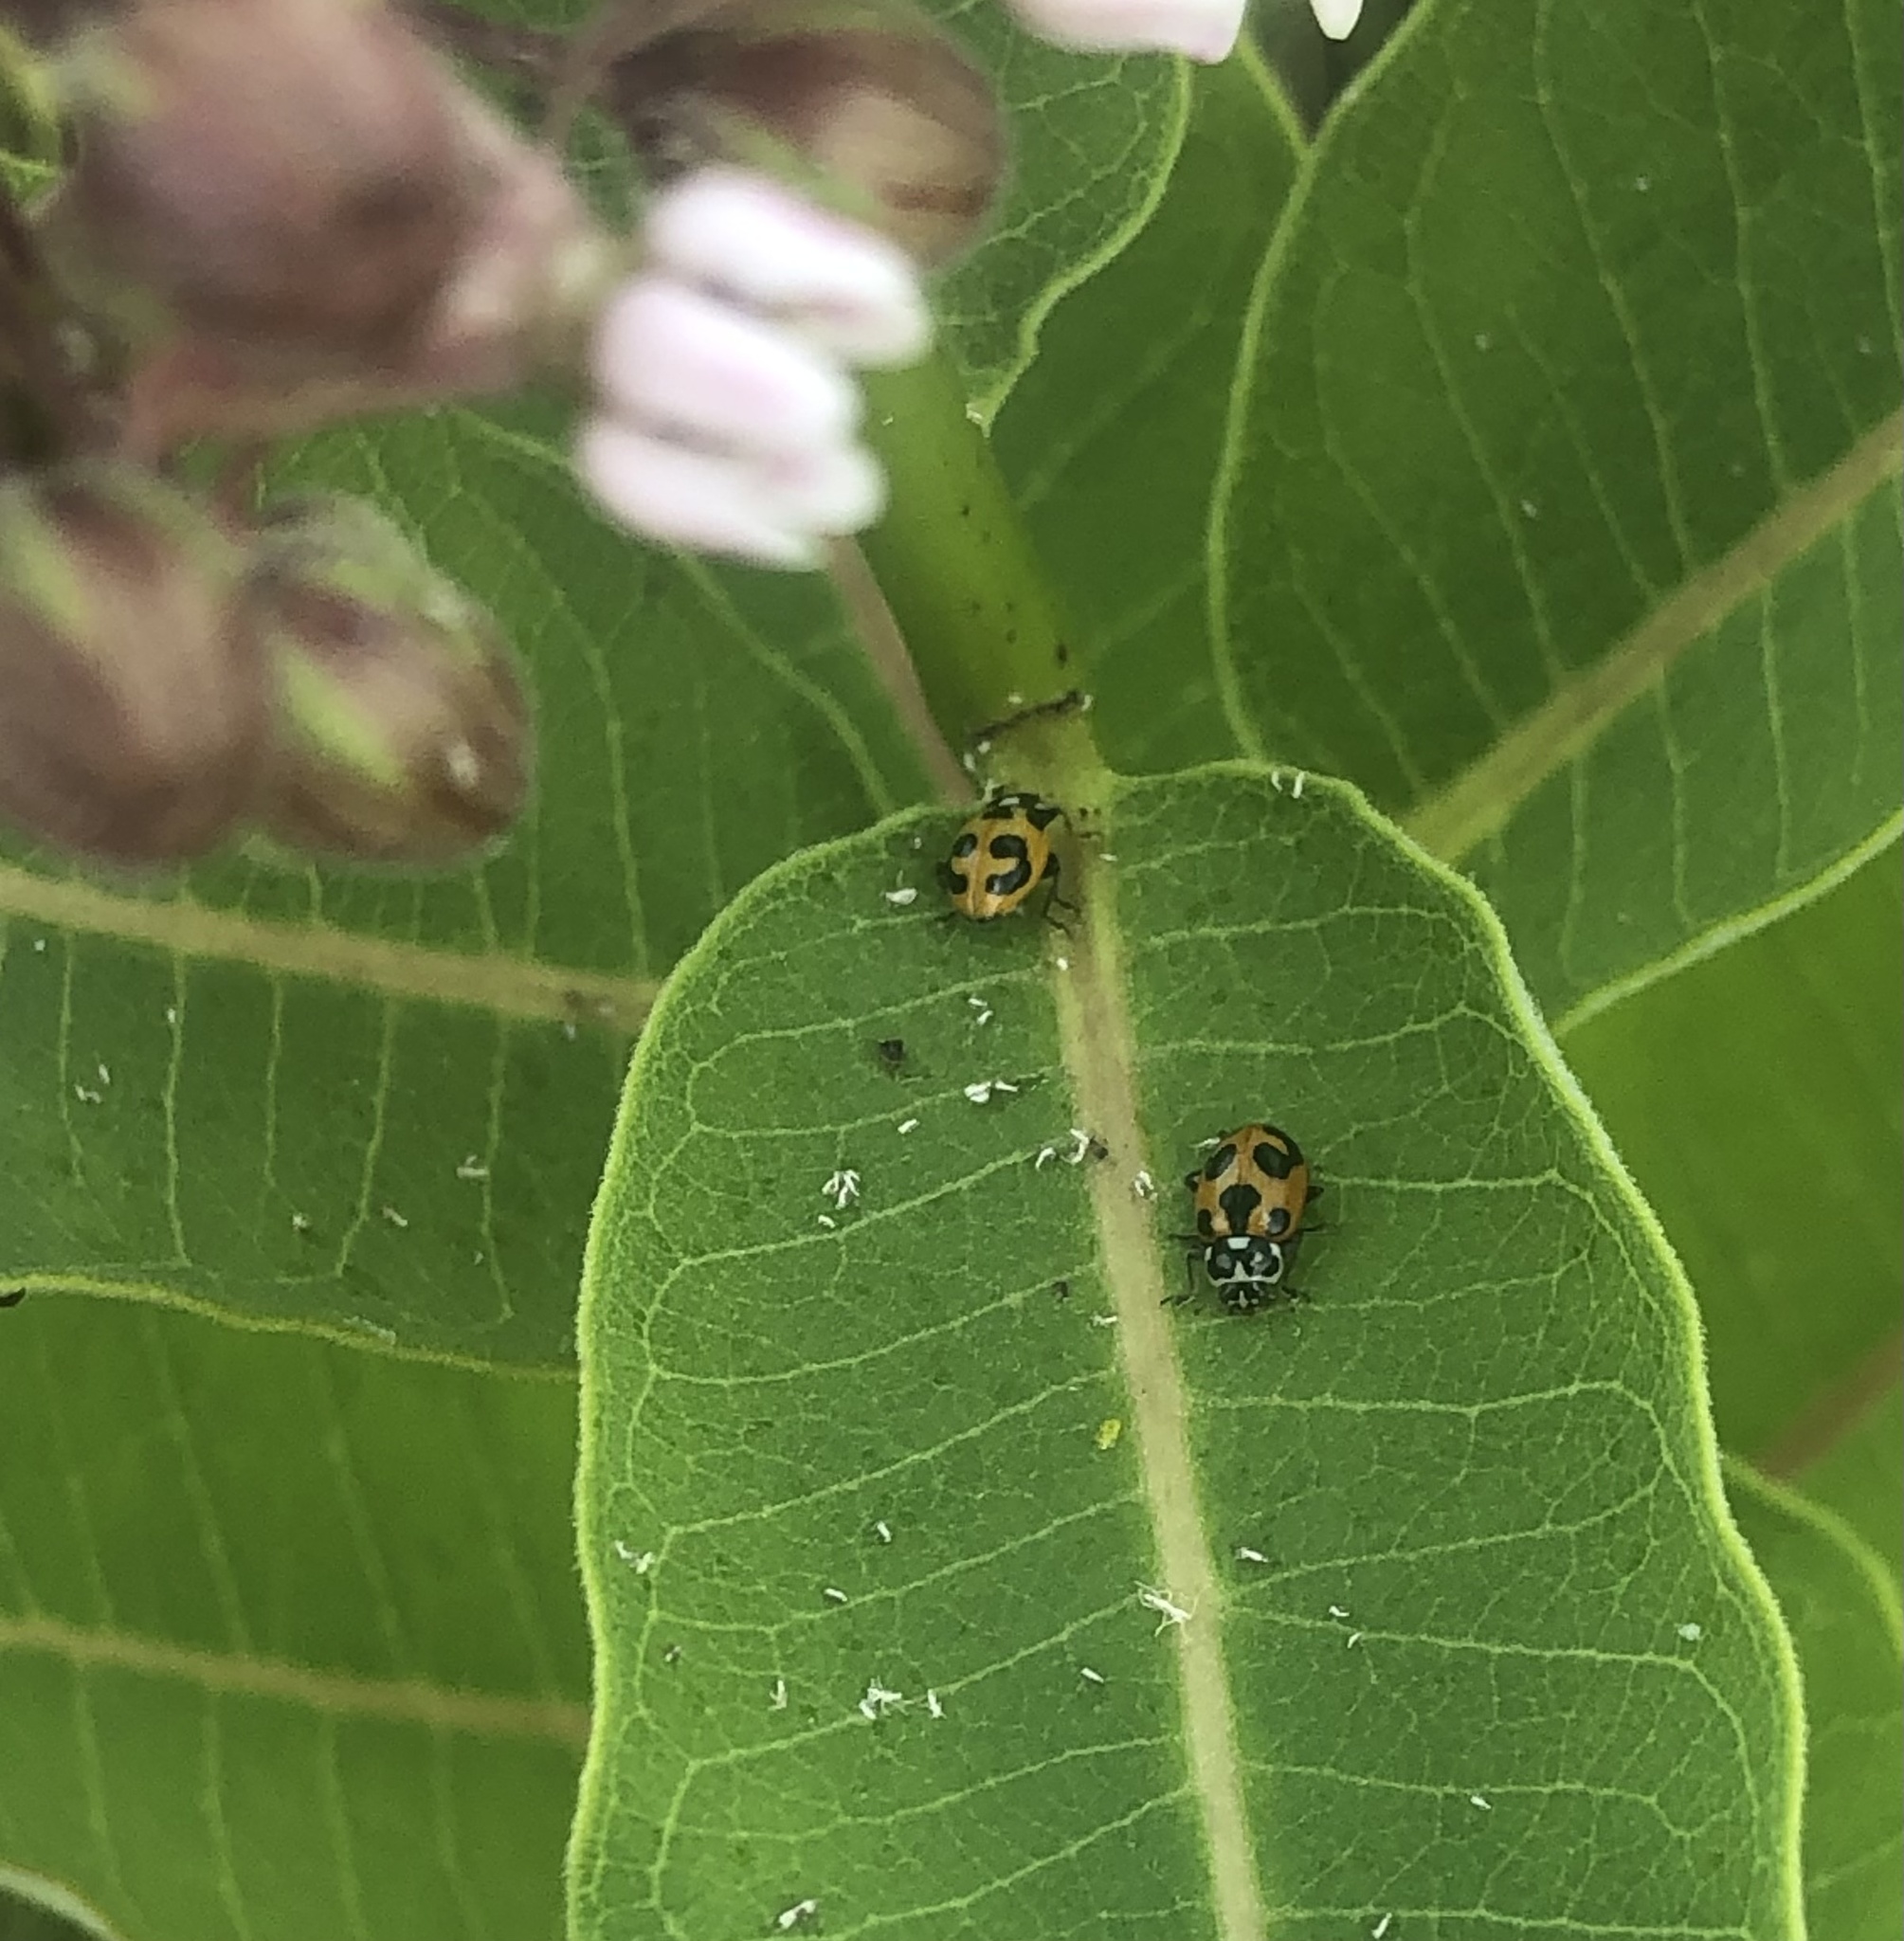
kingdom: Animalia
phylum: Arthropoda
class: Insecta
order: Coleoptera
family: Coccinellidae
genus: Hippodamia
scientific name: Hippodamia parenthesis
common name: Parenthesis lady beetle
